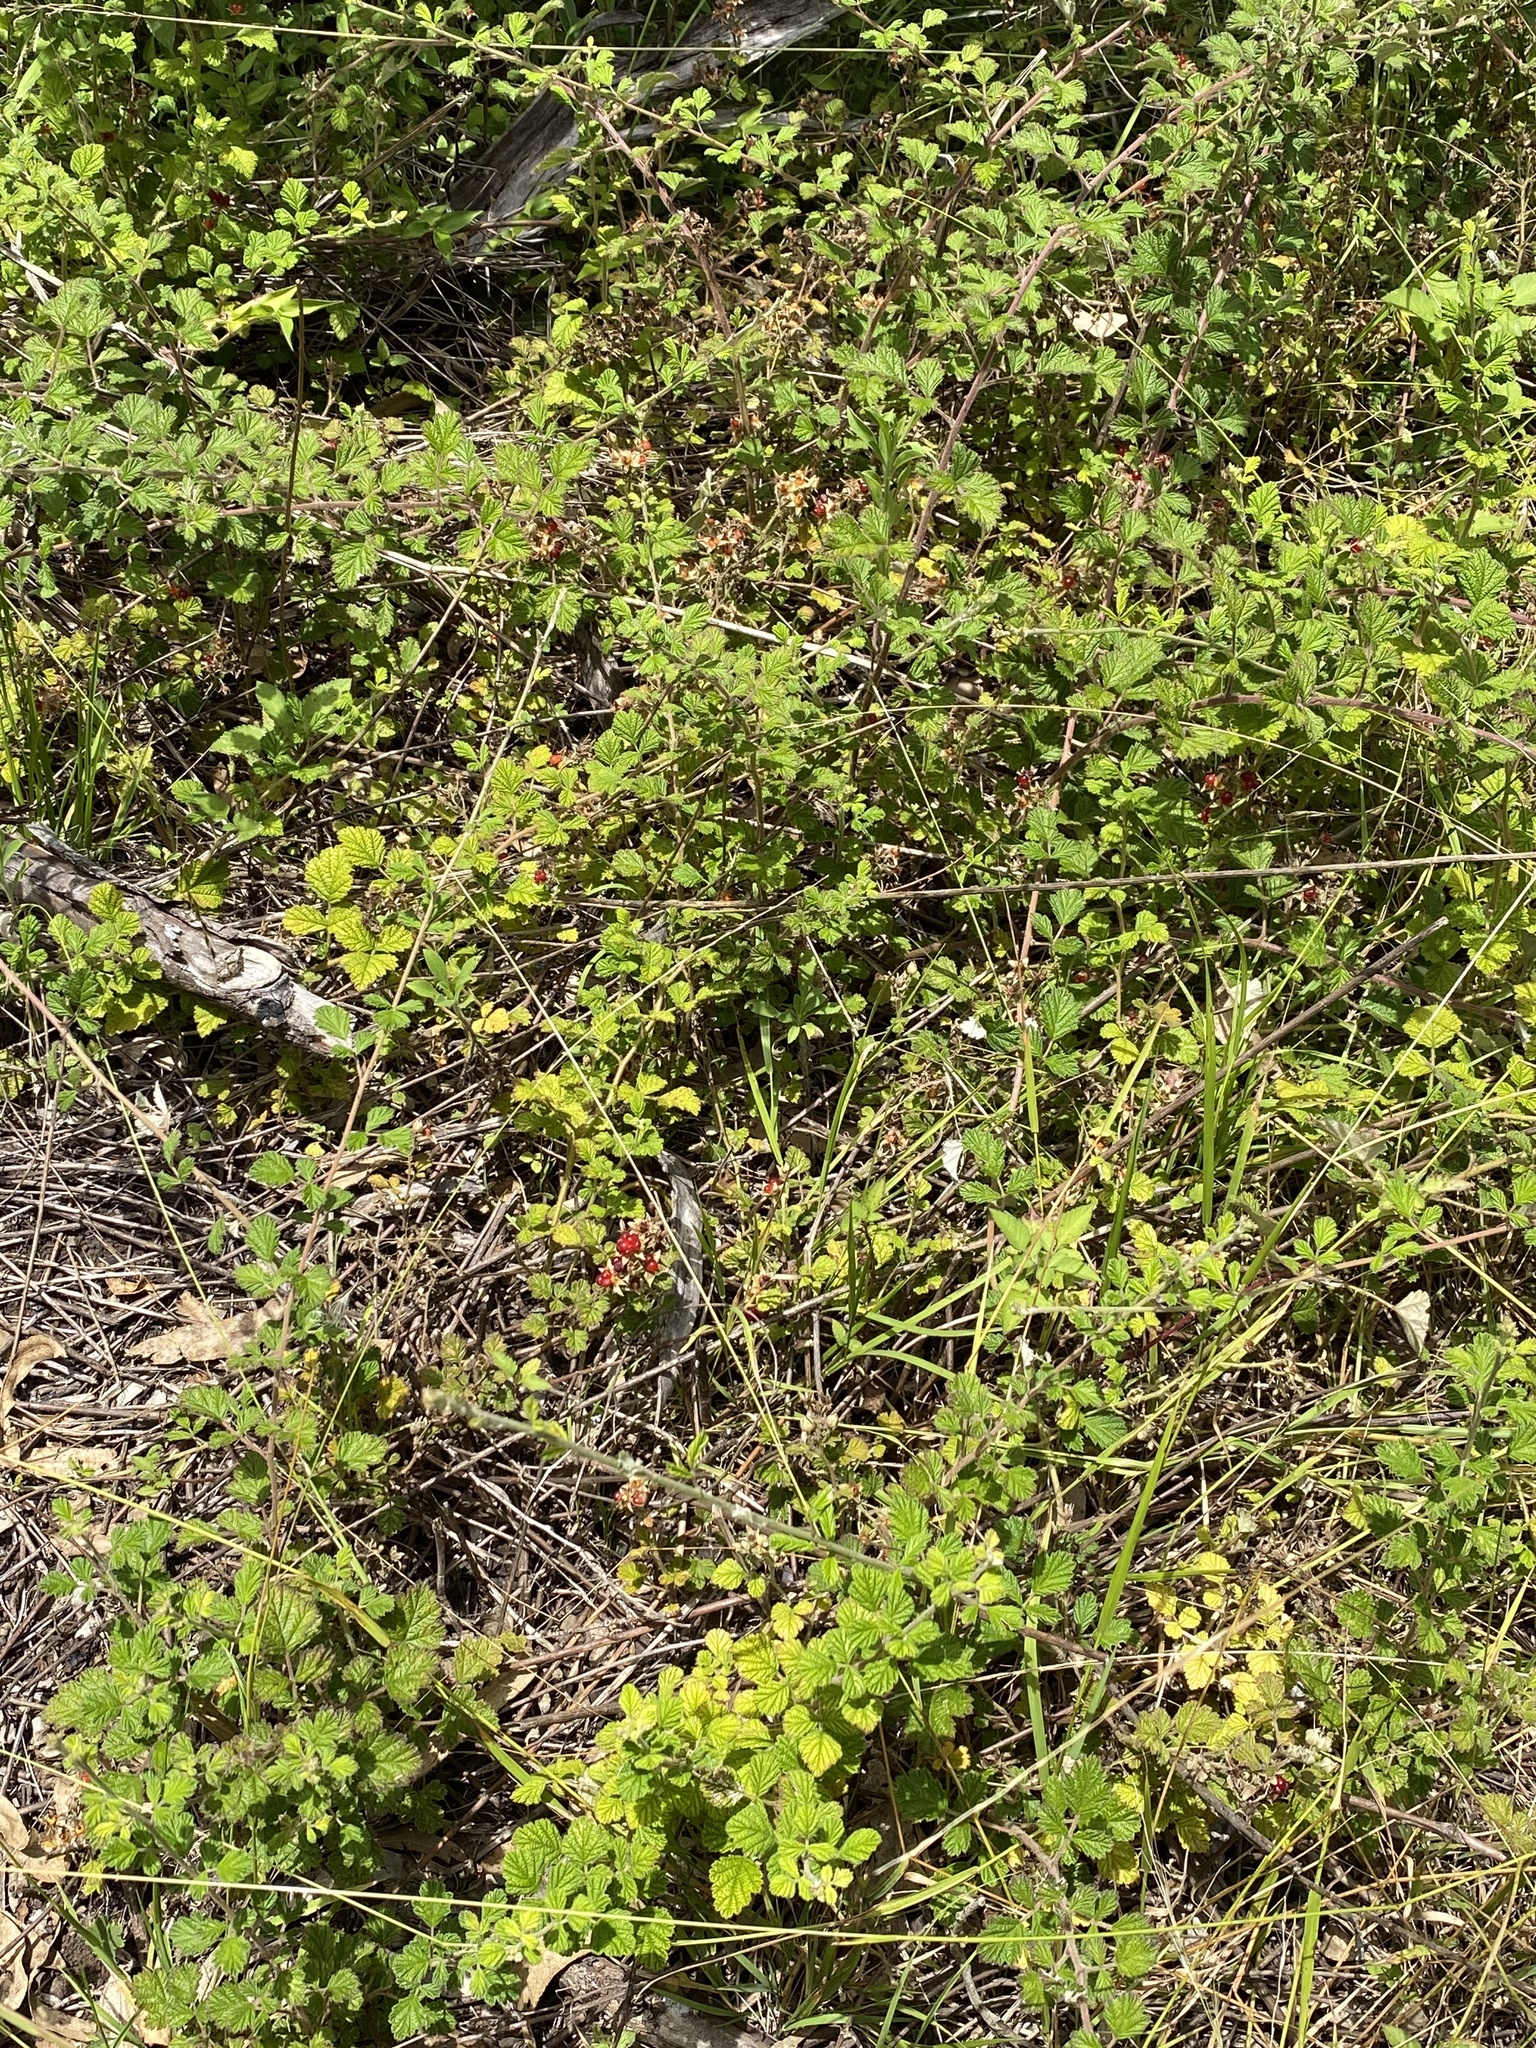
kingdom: Plantae
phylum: Tracheophyta
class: Magnoliopsida
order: Rosales
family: Rosaceae
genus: Rubus
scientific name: Rubus parvifolius
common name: Threeleaf blackberry
